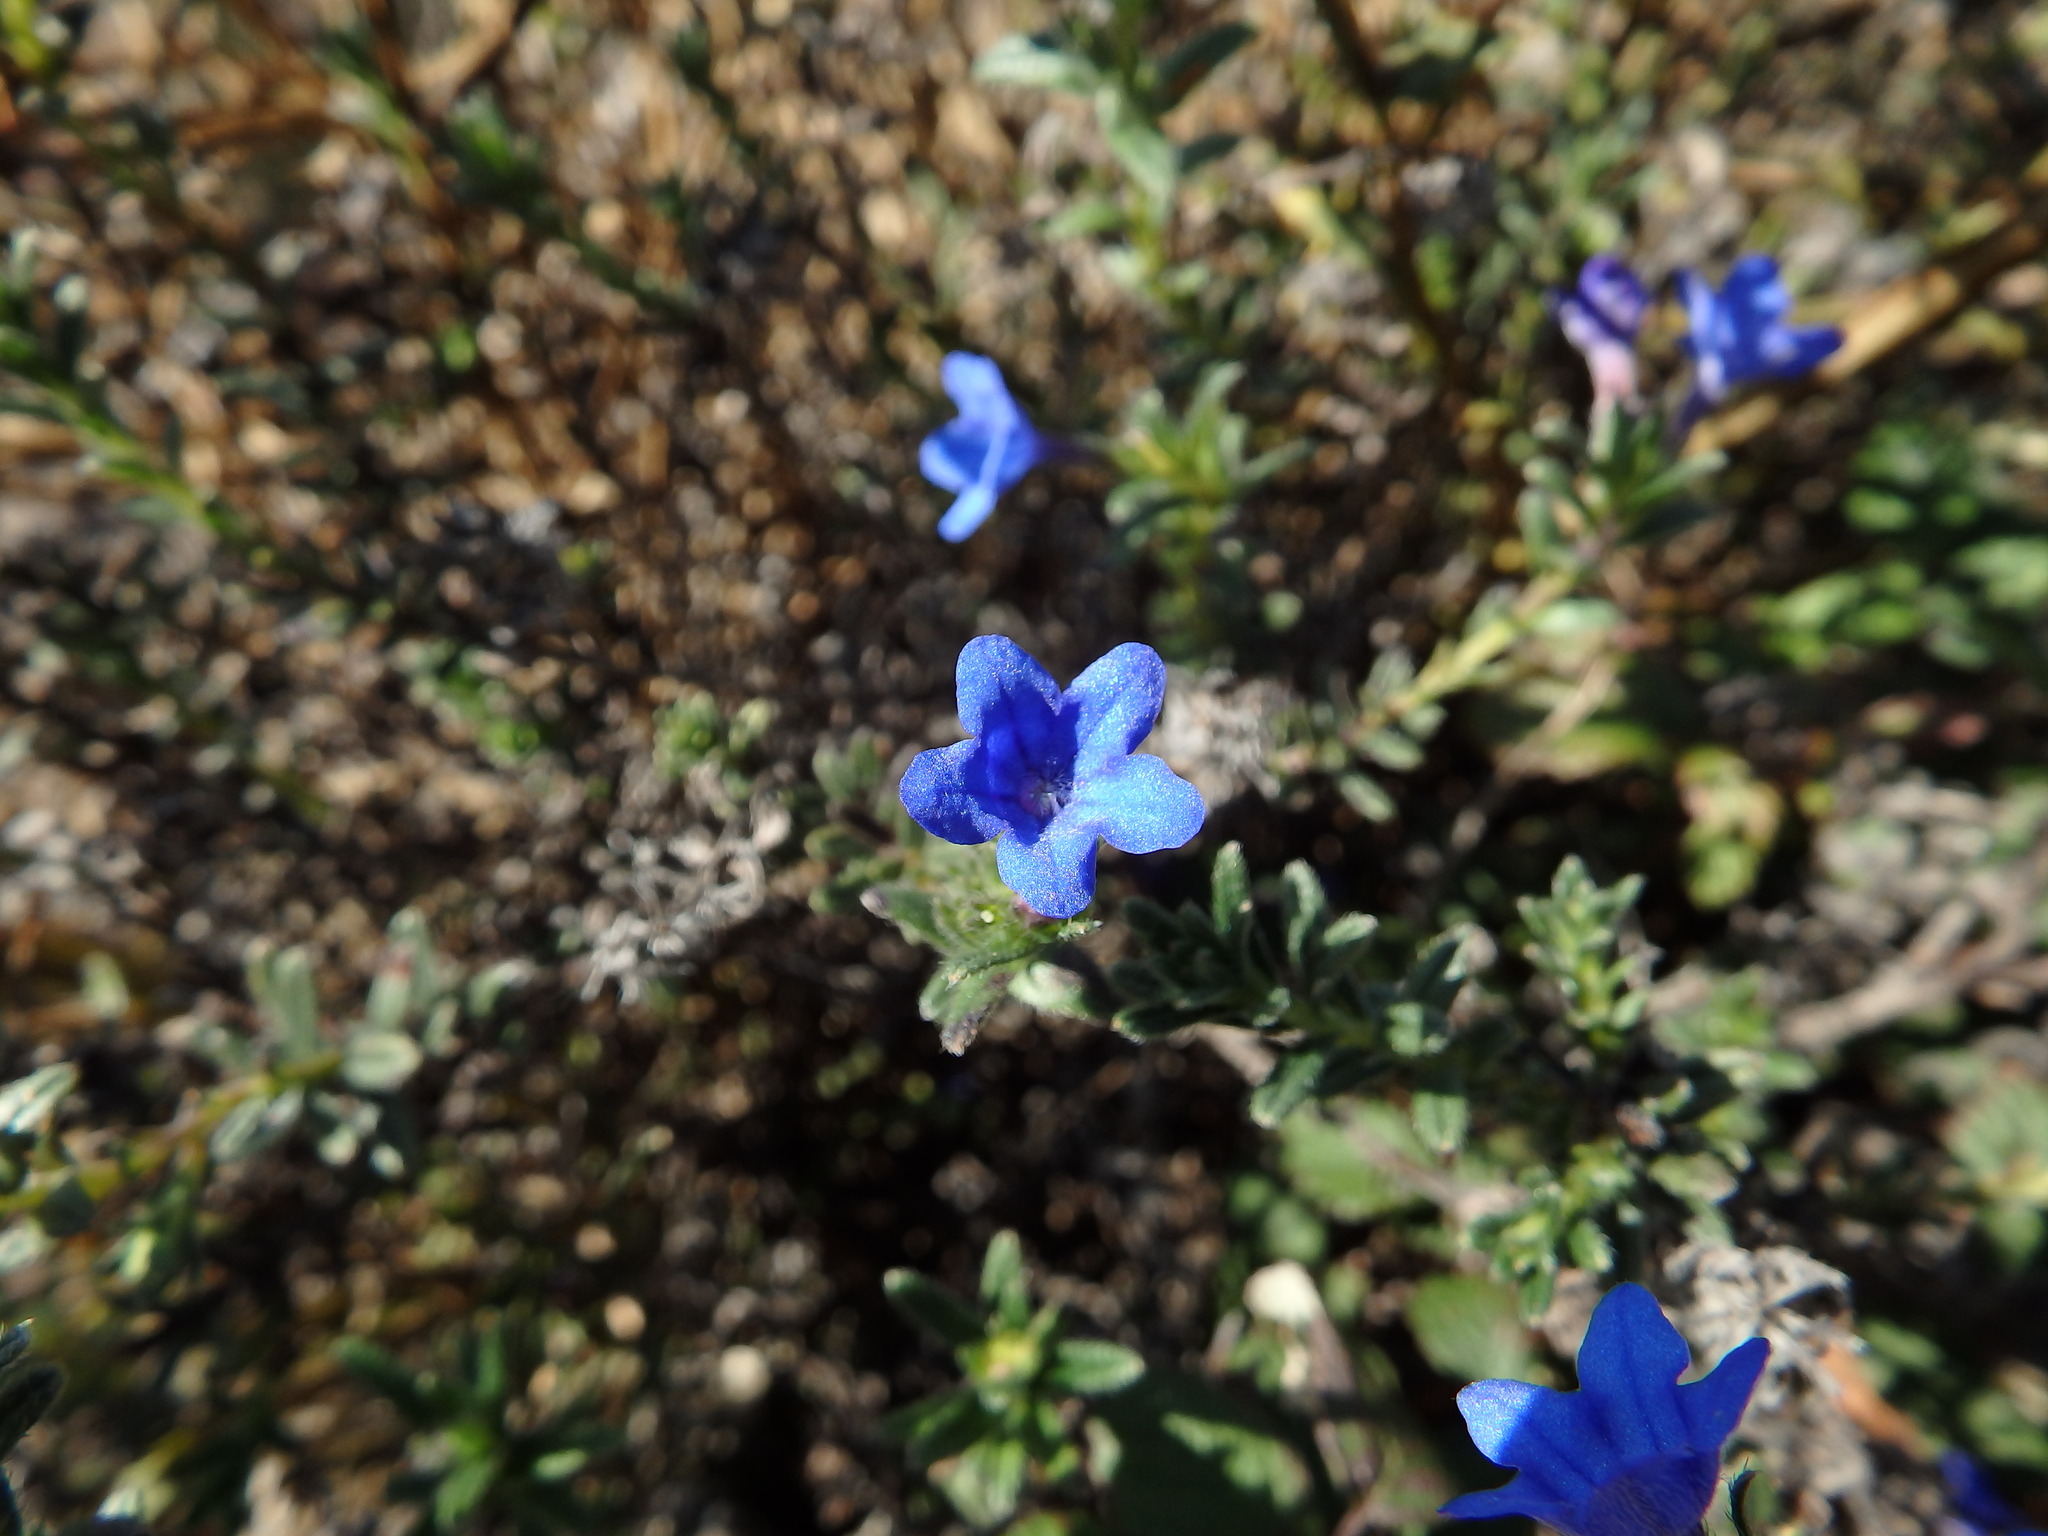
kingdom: Plantae
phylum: Tracheophyta
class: Magnoliopsida
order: Boraginales
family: Boraginaceae
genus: Glandora
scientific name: Glandora prostrata
